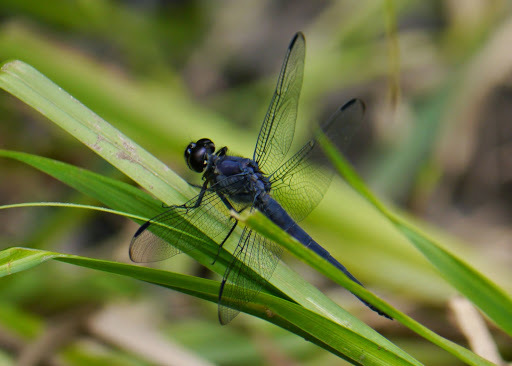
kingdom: Animalia
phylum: Arthropoda
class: Insecta
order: Odonata
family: Libellulidae
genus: Libellula
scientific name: Libellula incesta
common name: Slaty skimmer
